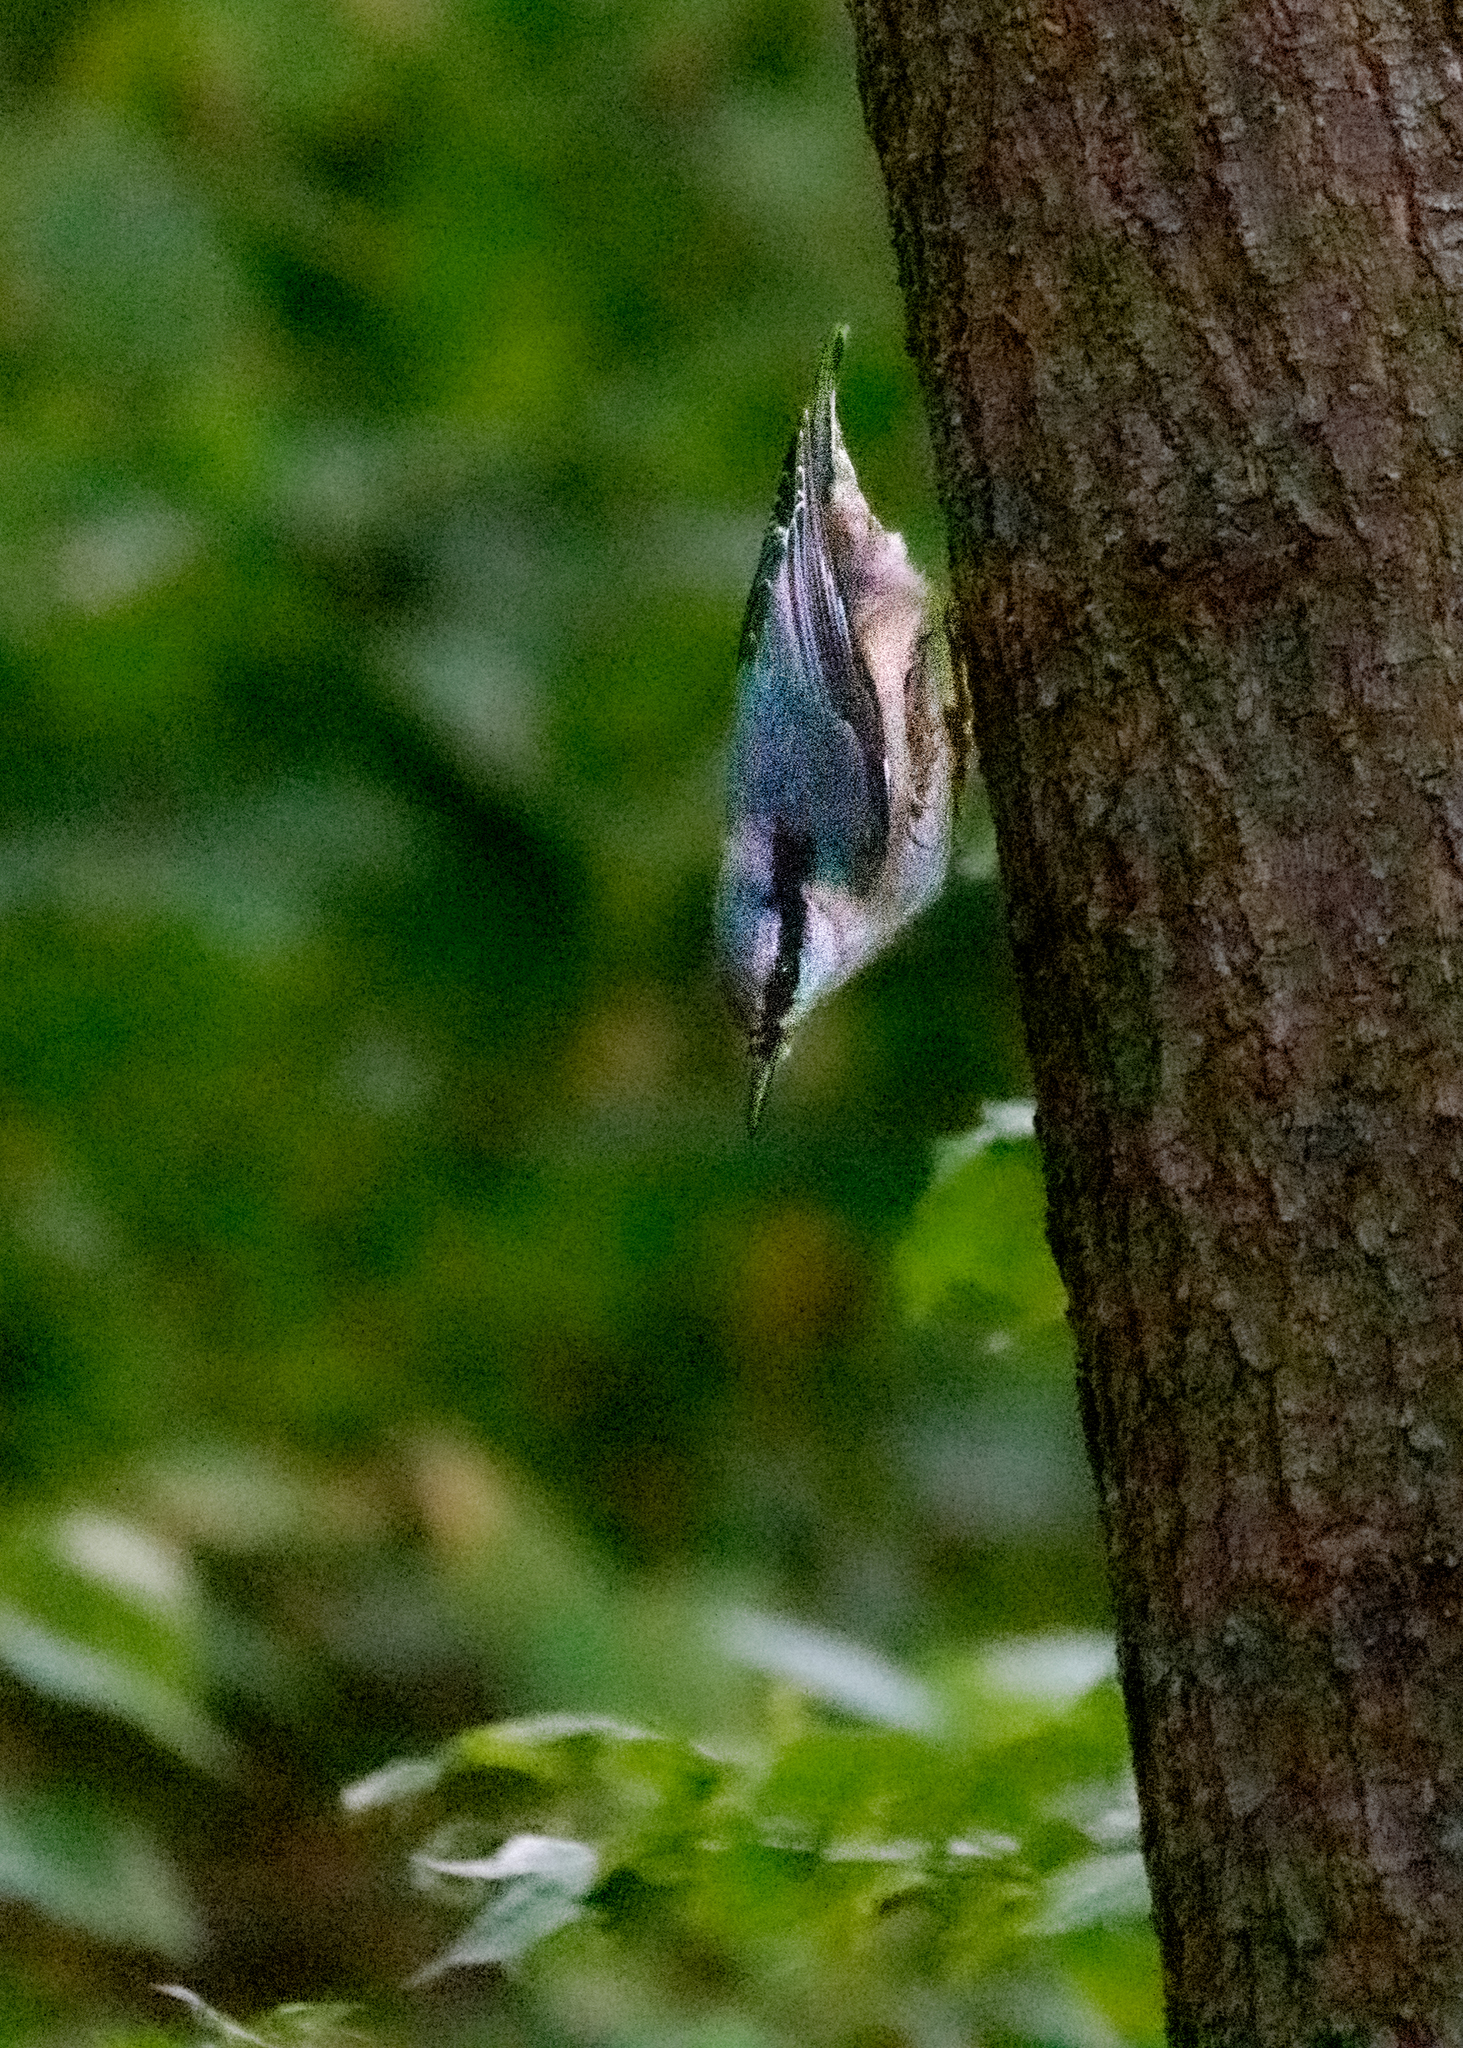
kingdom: Animalia
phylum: Chordata
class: Aves
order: Passeriformes
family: Sittidae
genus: Sitta
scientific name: Sitta europaea
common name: Eurasian nuthatch
